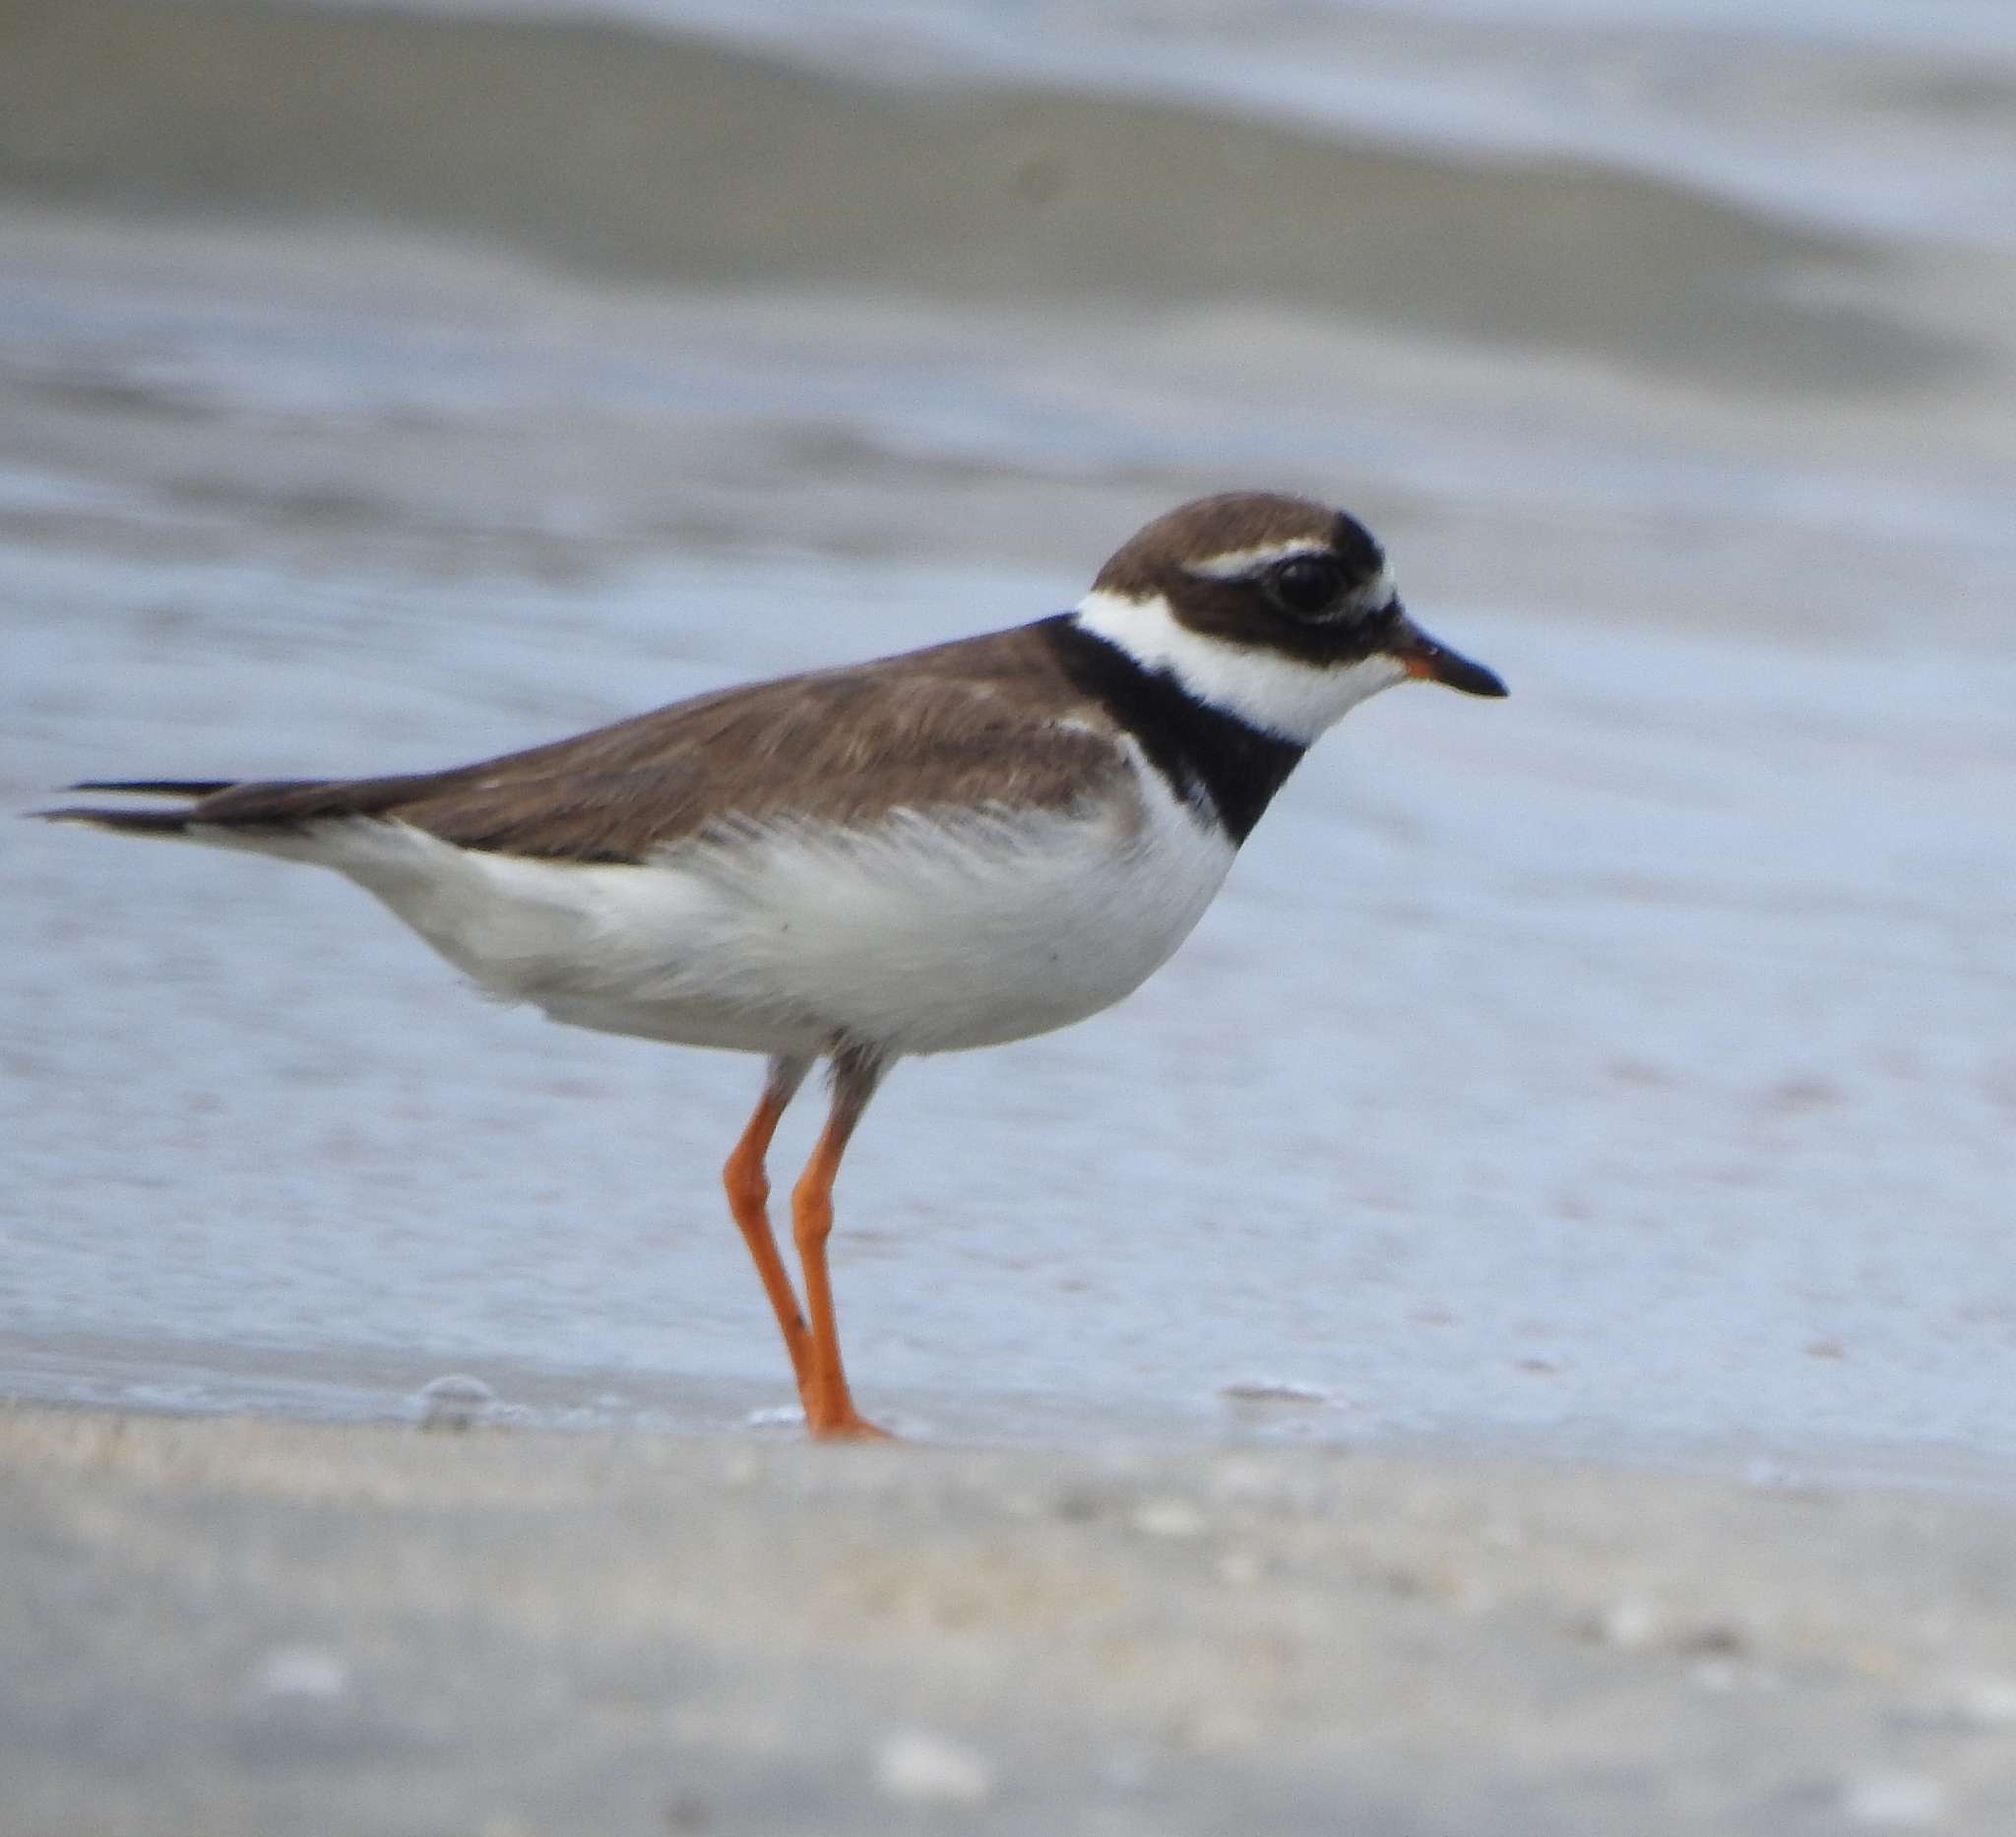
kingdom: Animalia
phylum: Chordata
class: Aves
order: Charadriiformes
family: Charadriidae
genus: Charadrius
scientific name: Charadrius hiaticula
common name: Common ringed plover
